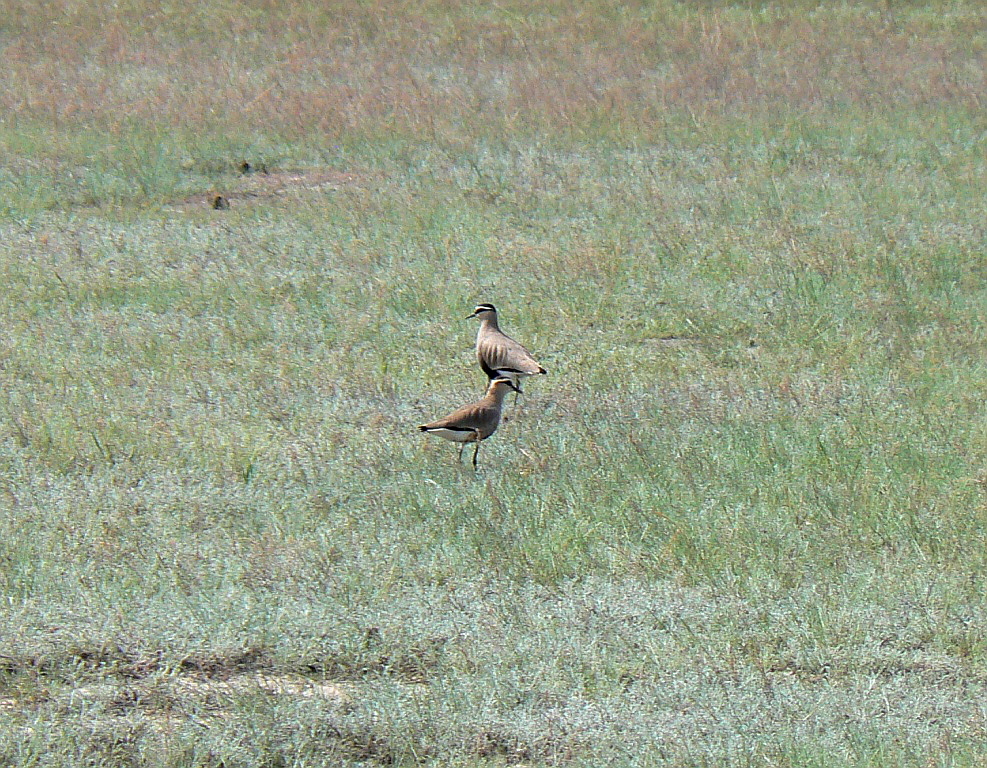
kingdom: Animalia
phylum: Chordata
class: Aves
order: Charadriiformes
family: Charadriidae
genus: Vanellus
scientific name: Vanellus gregarius
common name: Sociable lapwing
